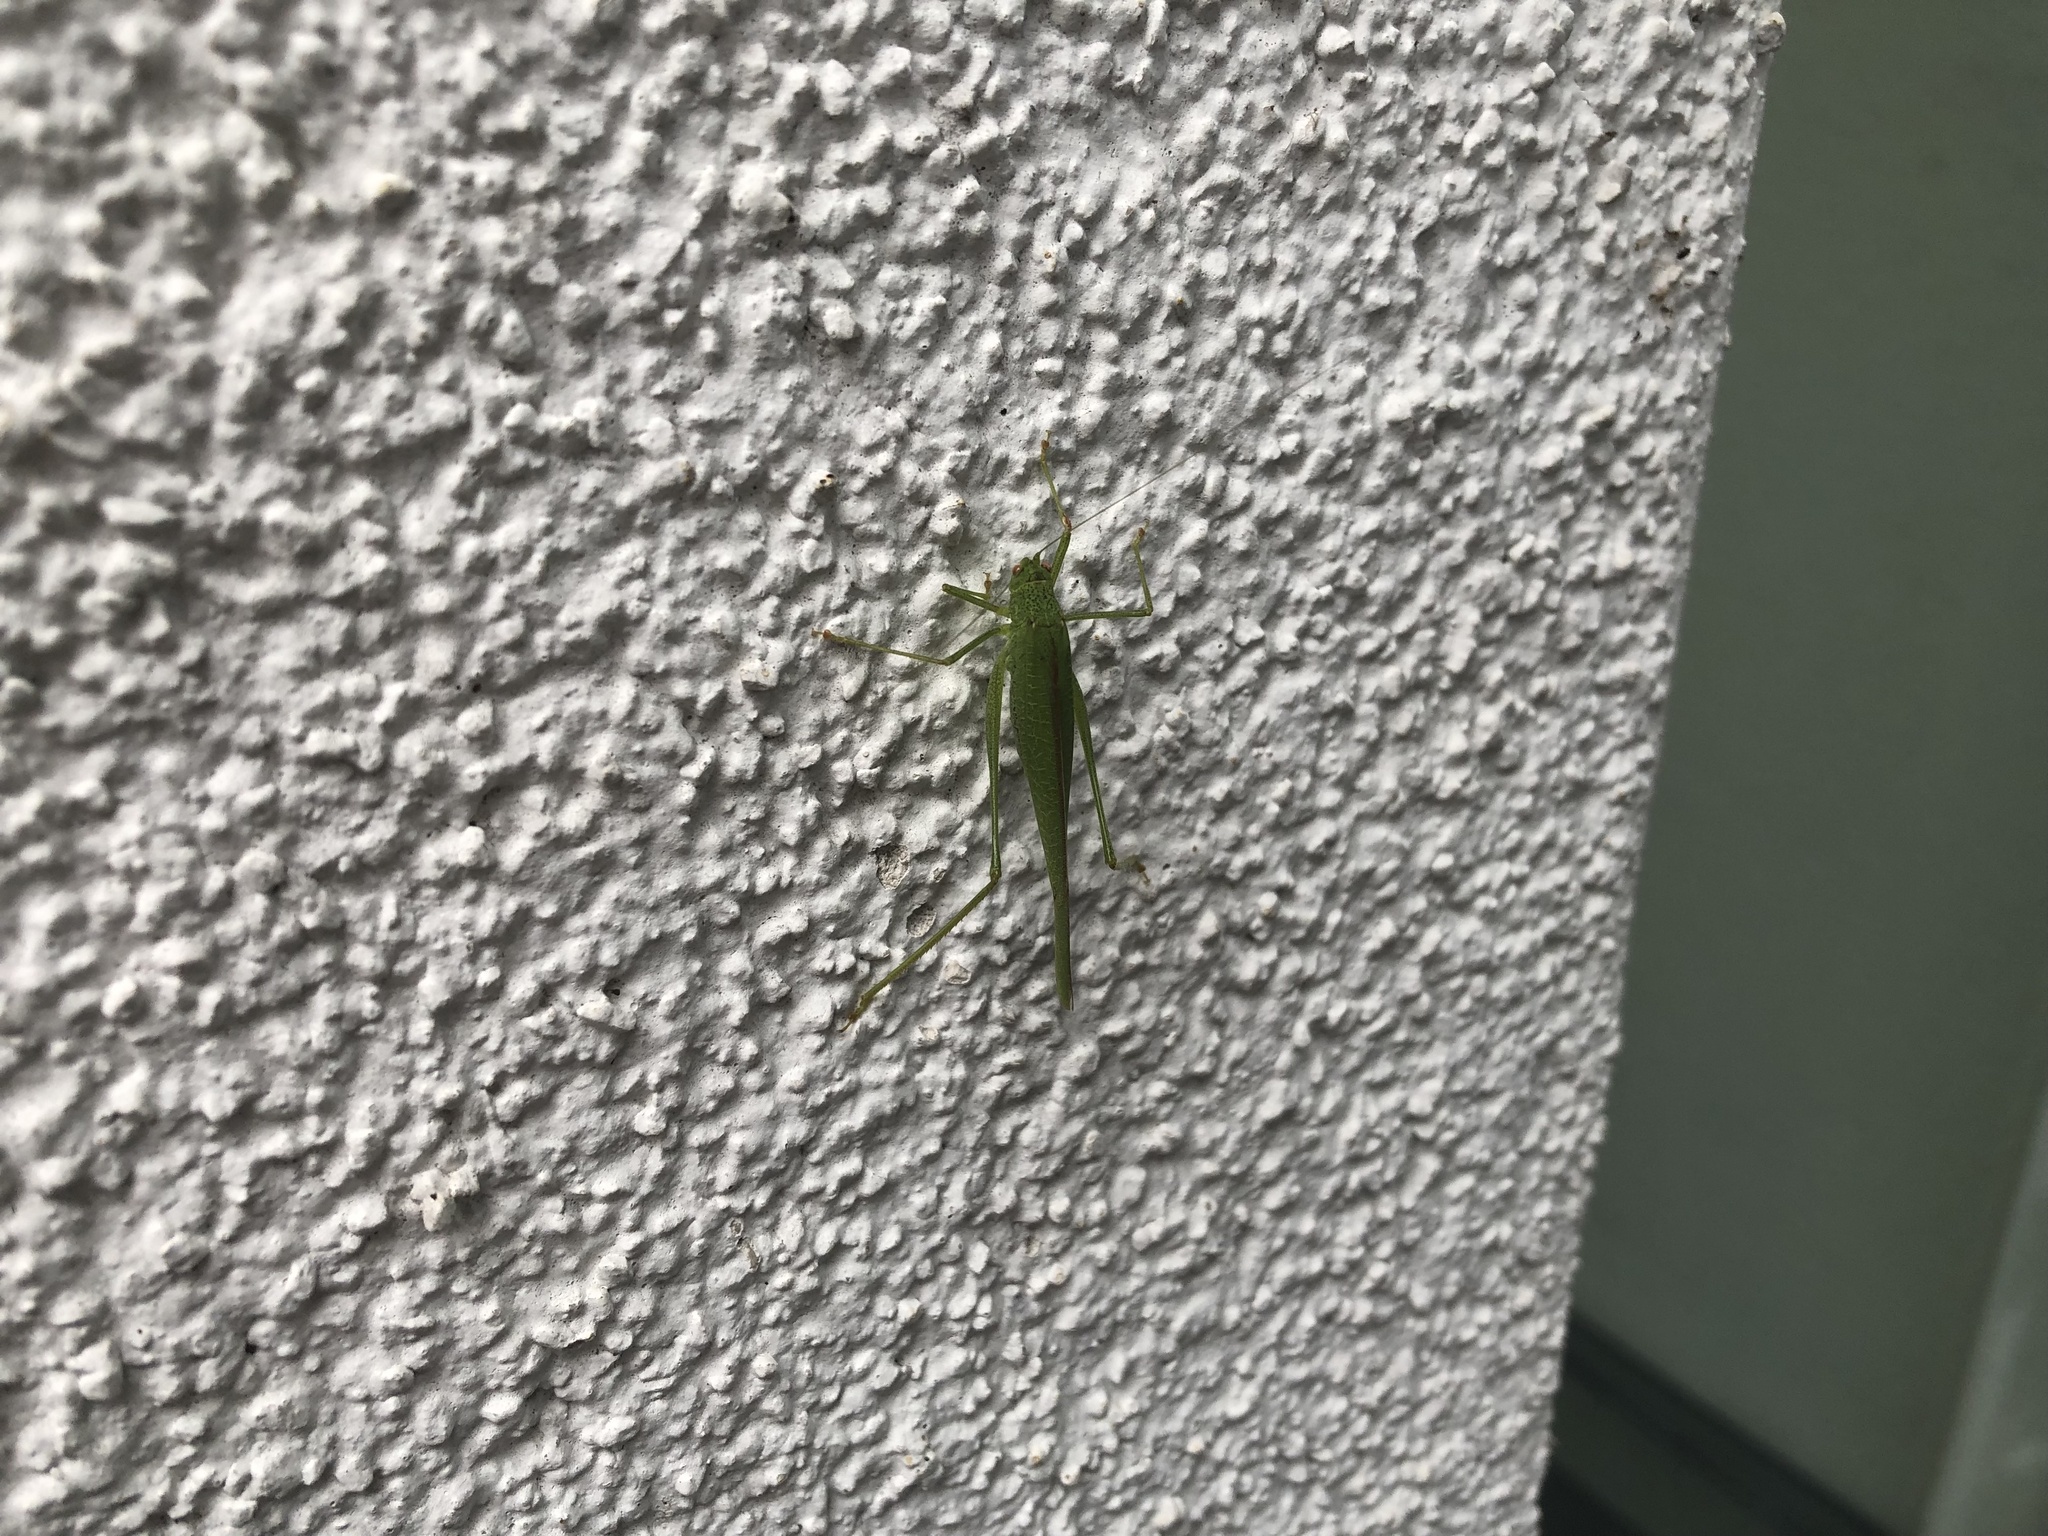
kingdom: Animalia
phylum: Arthropoda
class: Insecta
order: Orthoptera
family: Tettigoniidae
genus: Phaneroptera
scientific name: Phaneroptera nana
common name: Southern sickle bush-cricket
